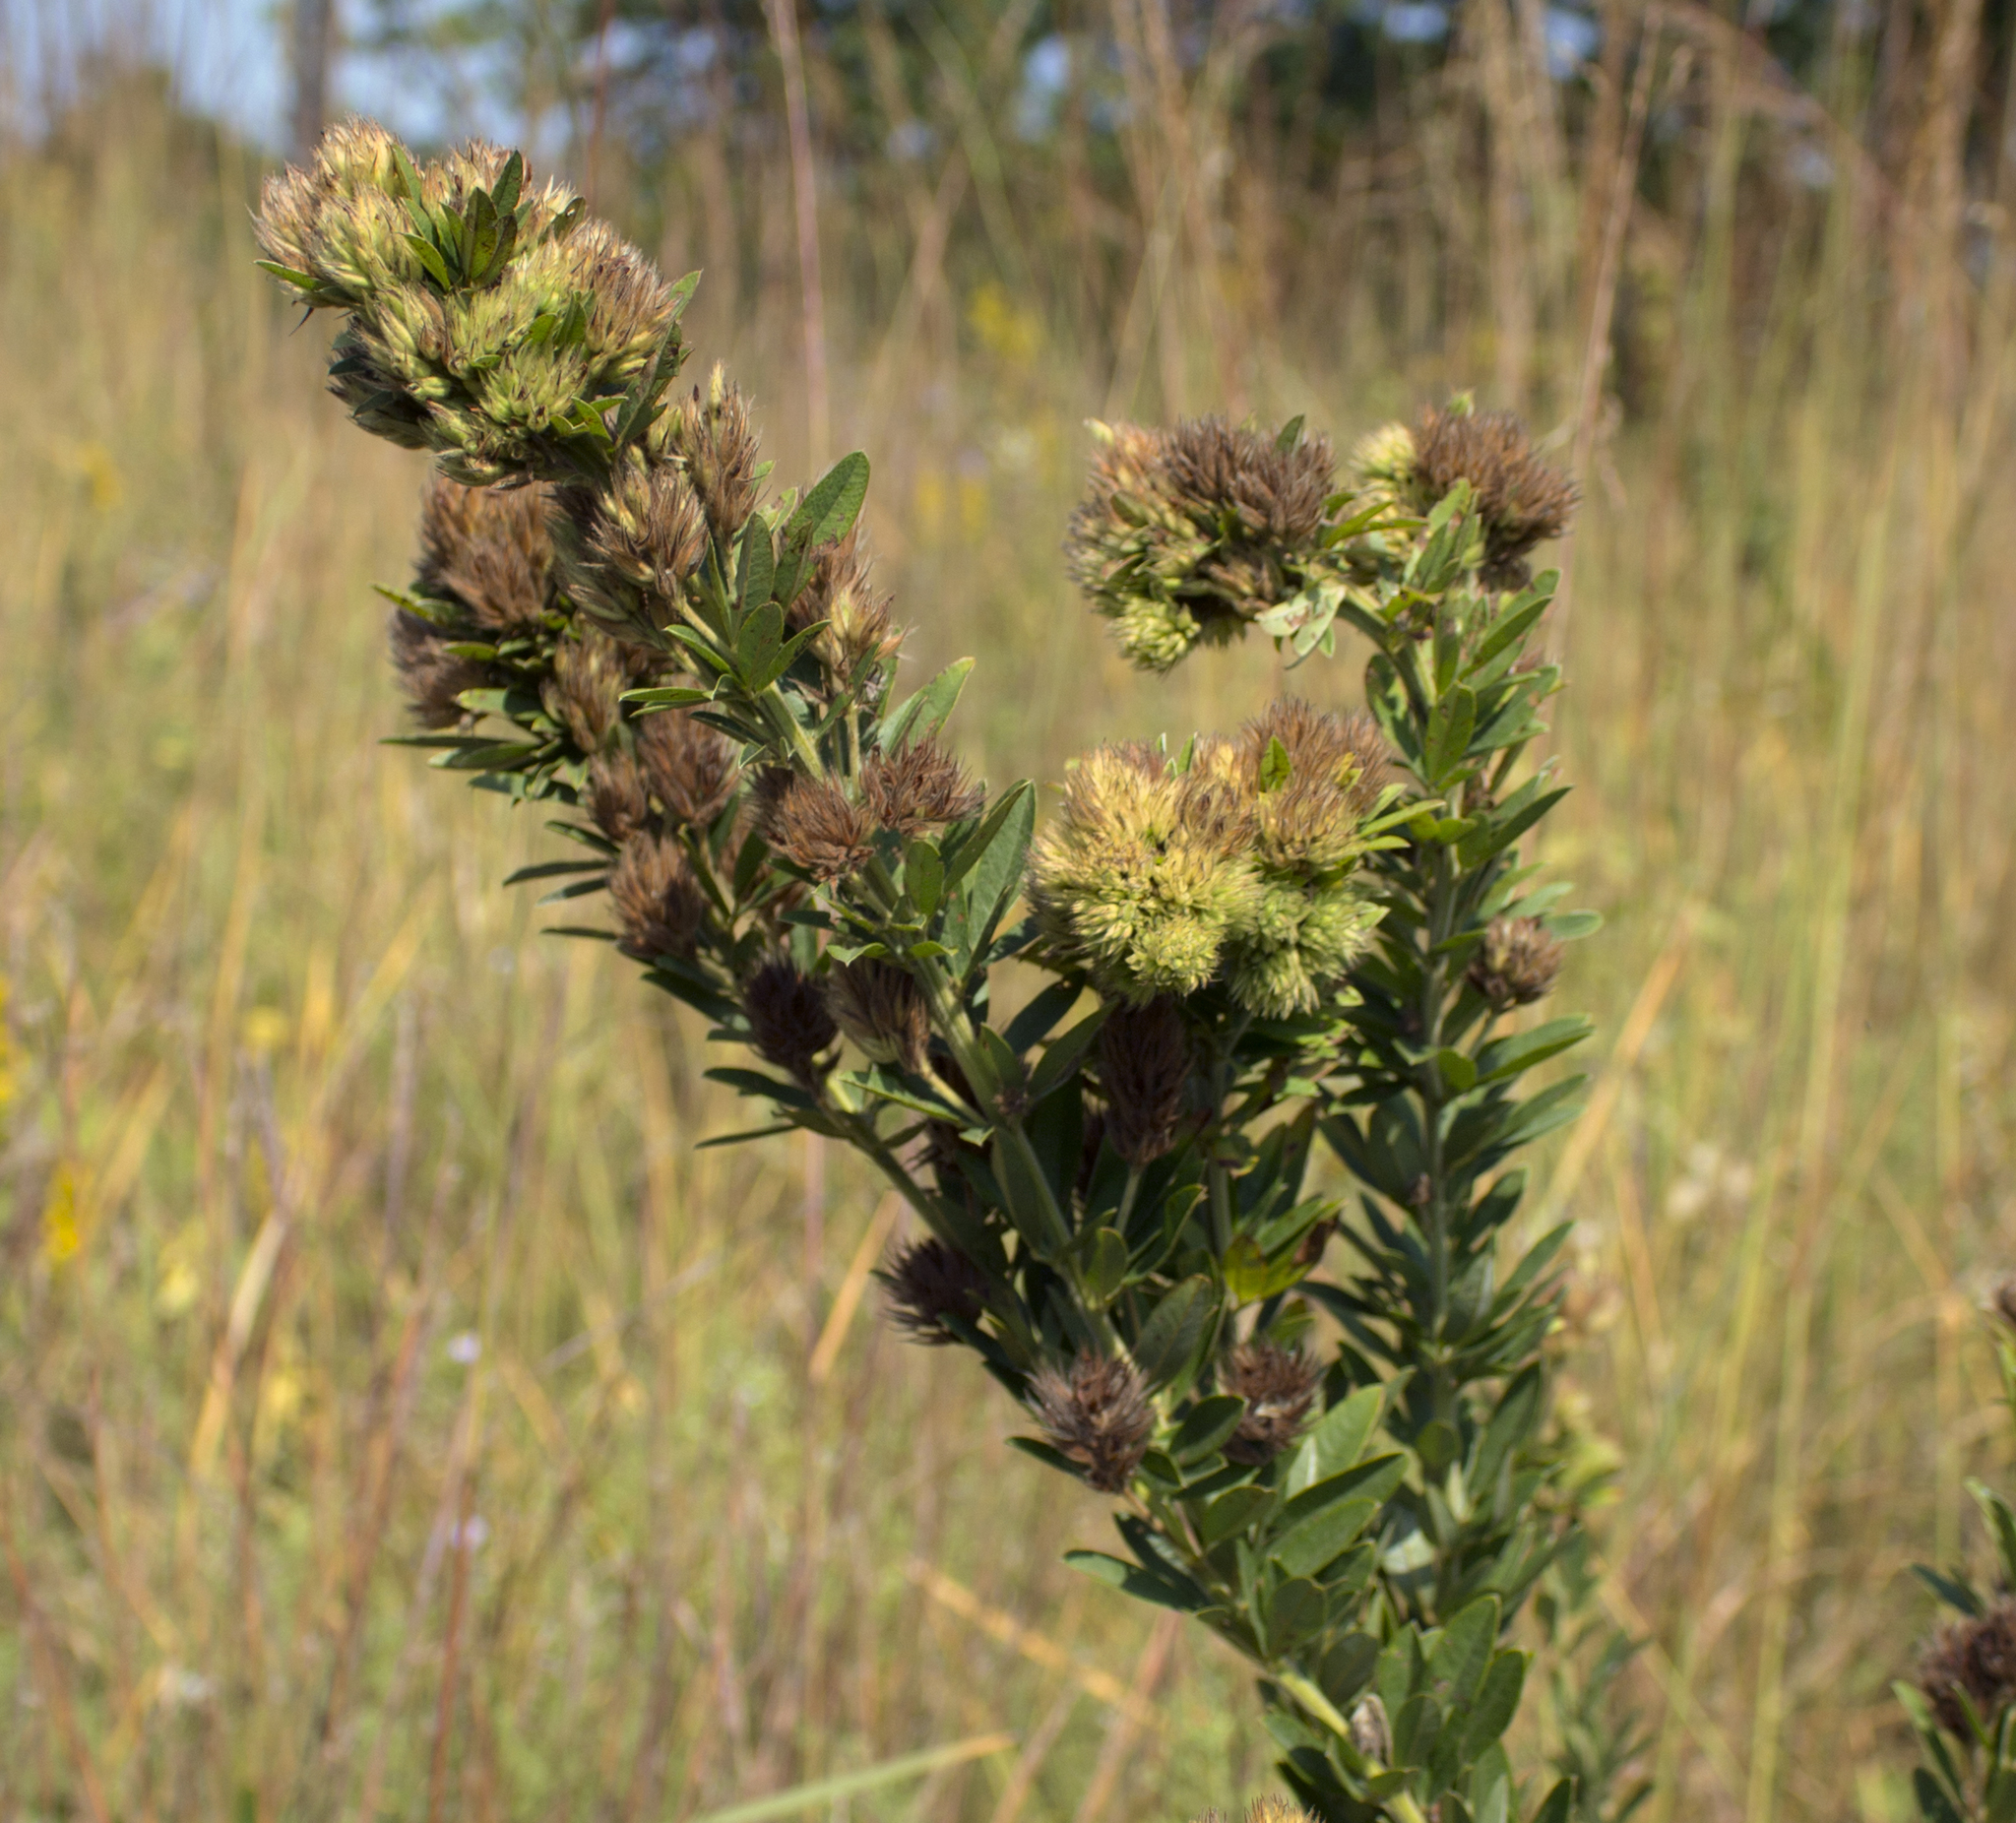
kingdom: Plantae
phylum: Tracheophyta
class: Magnoliopsida
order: Fabales
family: Fabaceae
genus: Lespedeza
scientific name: Lespedeza capitata
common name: Dusty clover
